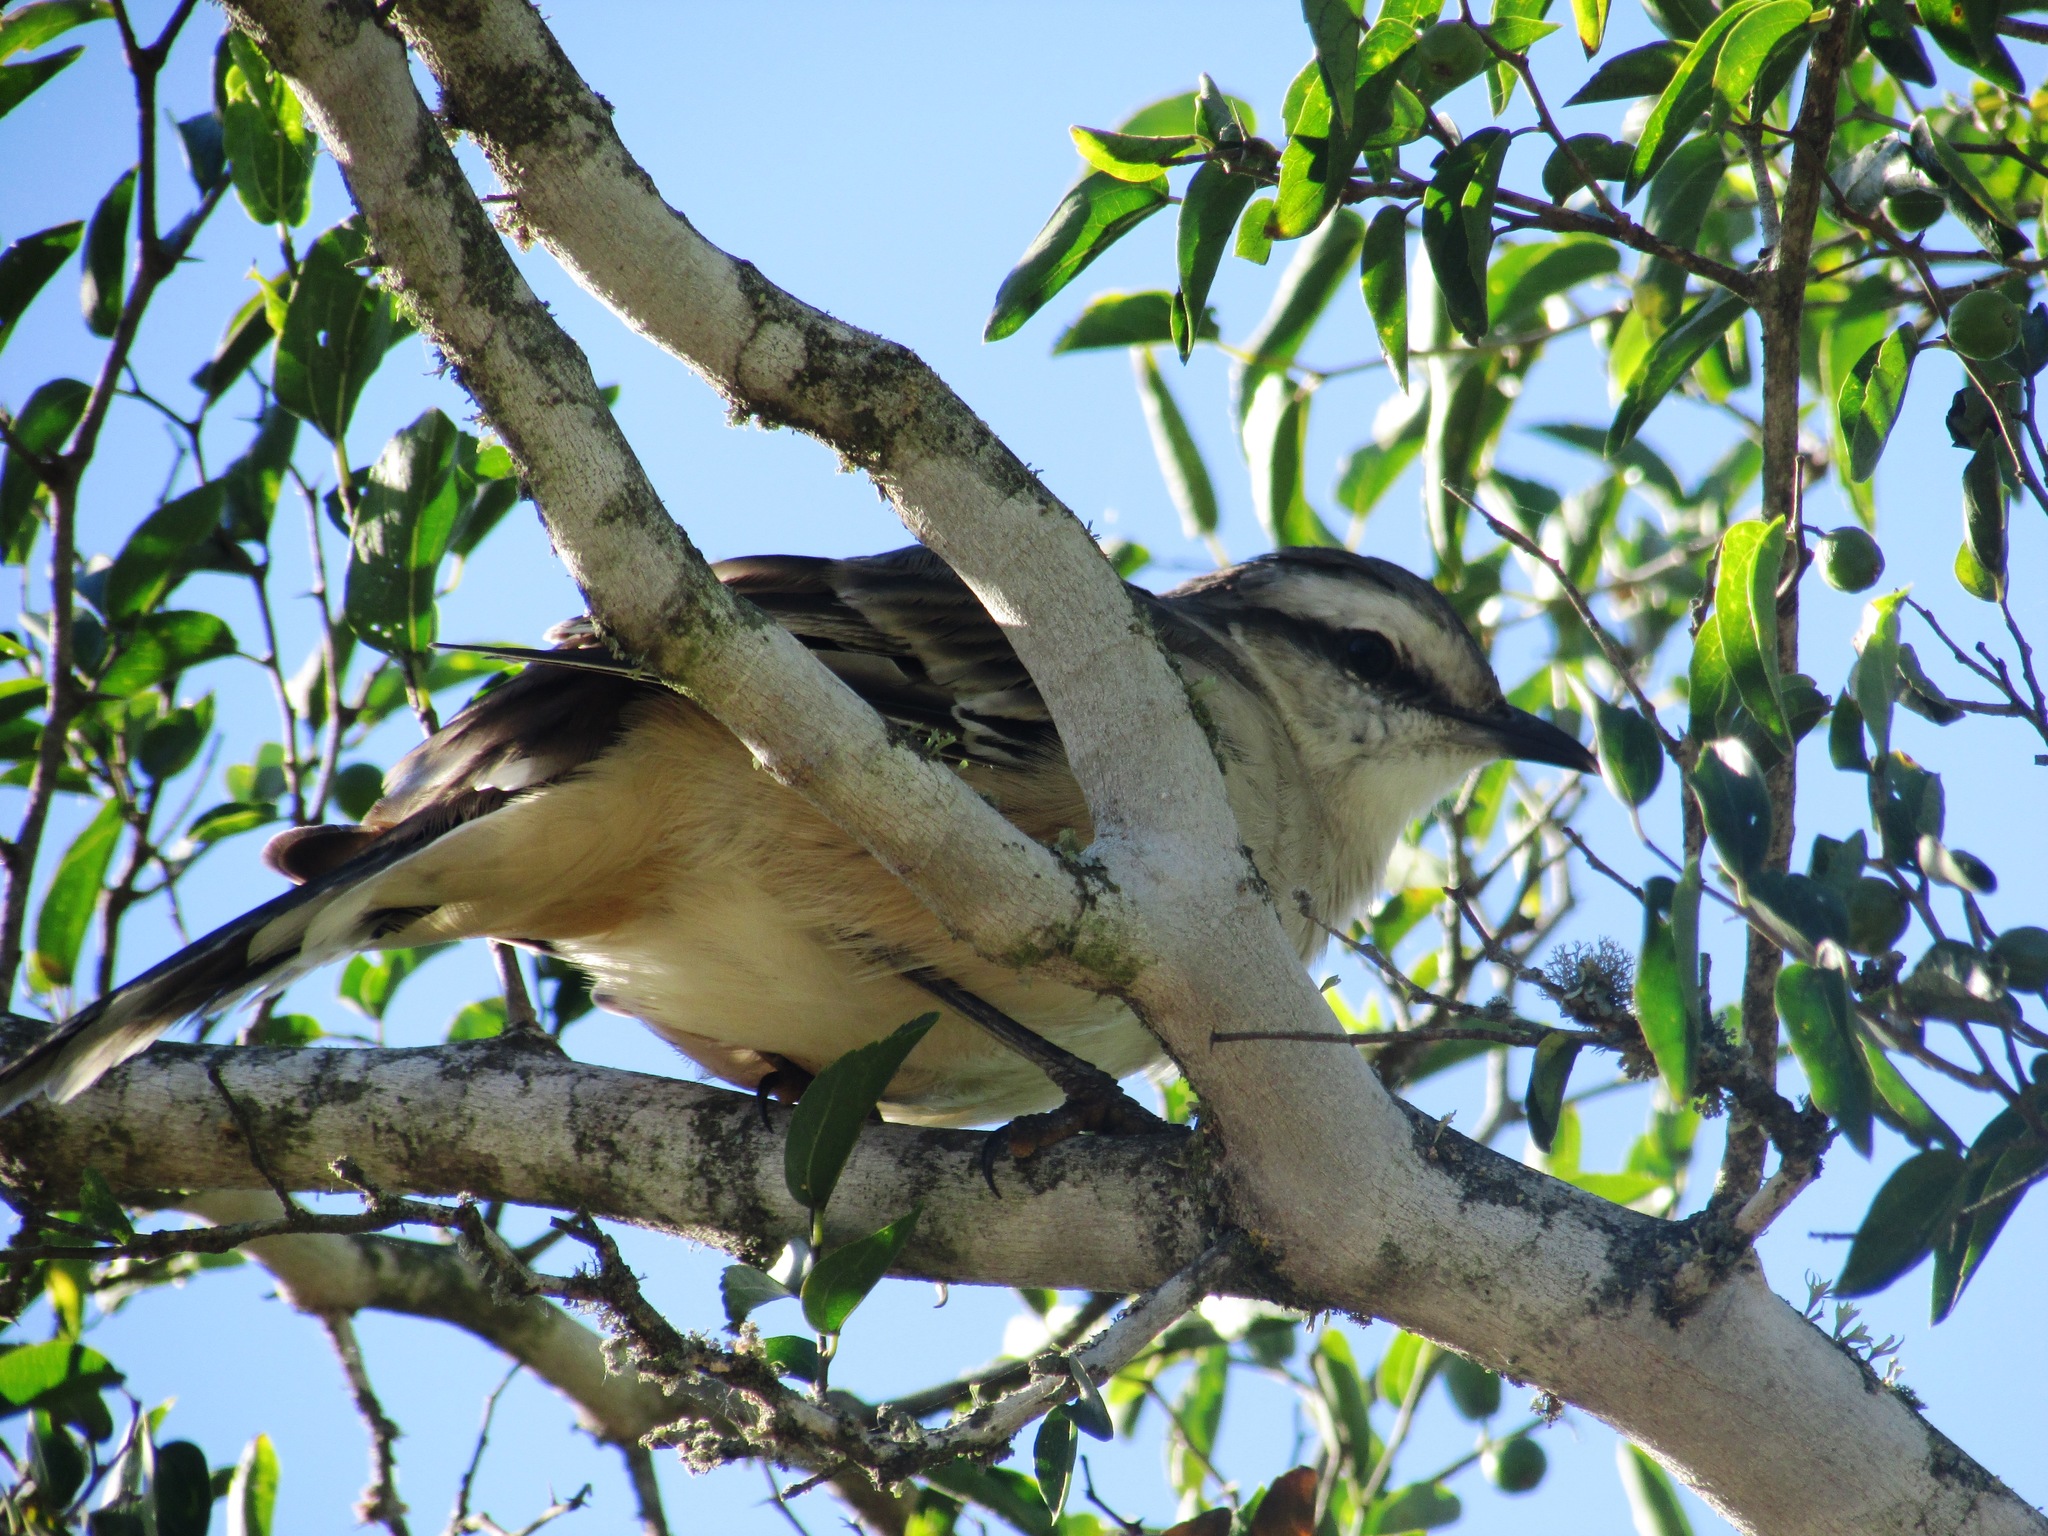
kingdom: Animalia
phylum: Chordata
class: Aves
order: Passeriformes
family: Mimidae
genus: Mimus
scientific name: Mimus saturninus
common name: Chalk-browed mockingbird
